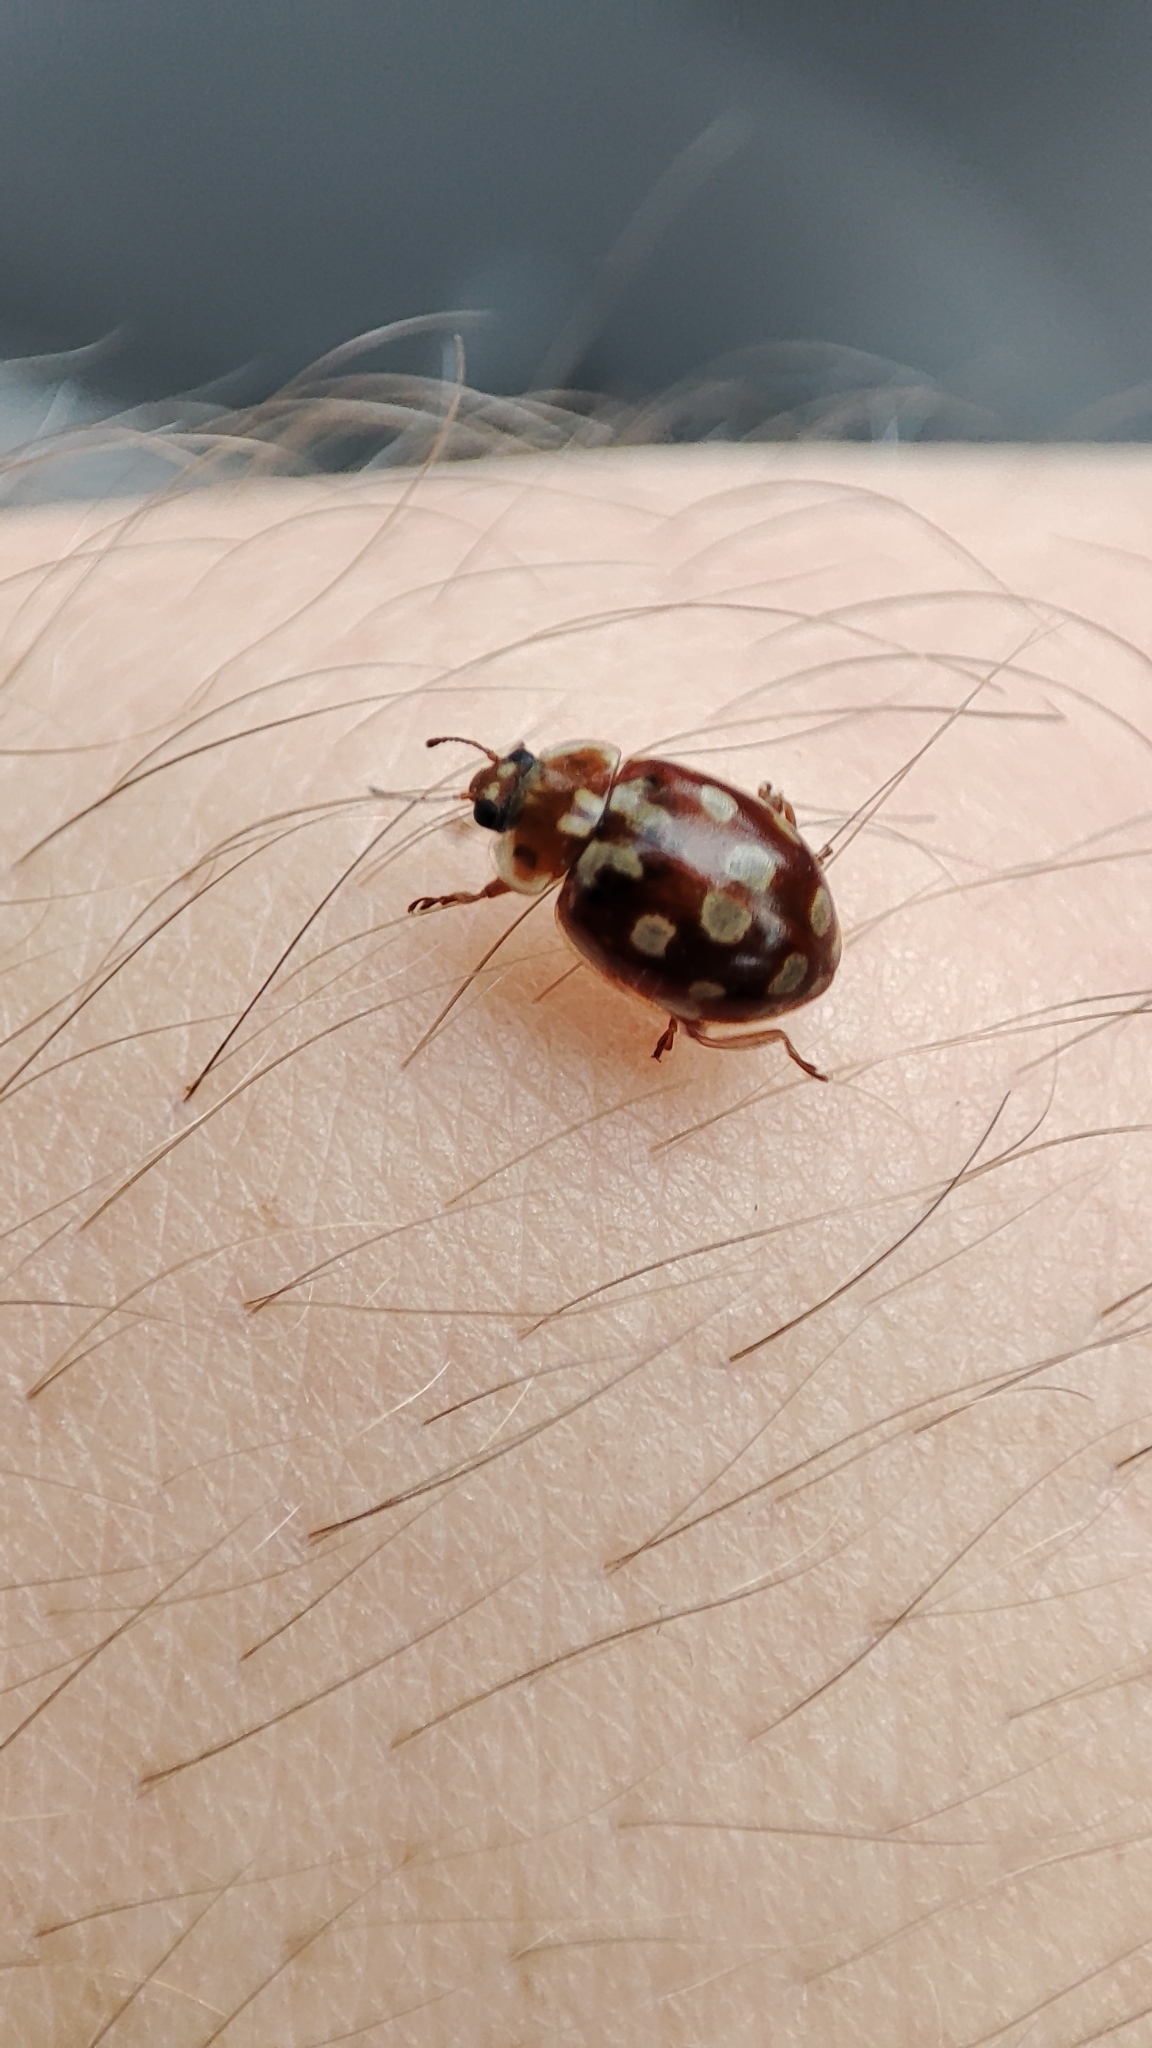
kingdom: Animalia
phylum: Arthropoda
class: Insecta
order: Coleoptera
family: Coccinellidae
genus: Myrrha
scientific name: Myrrha octodecimguttata
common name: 18-spot ladybird
